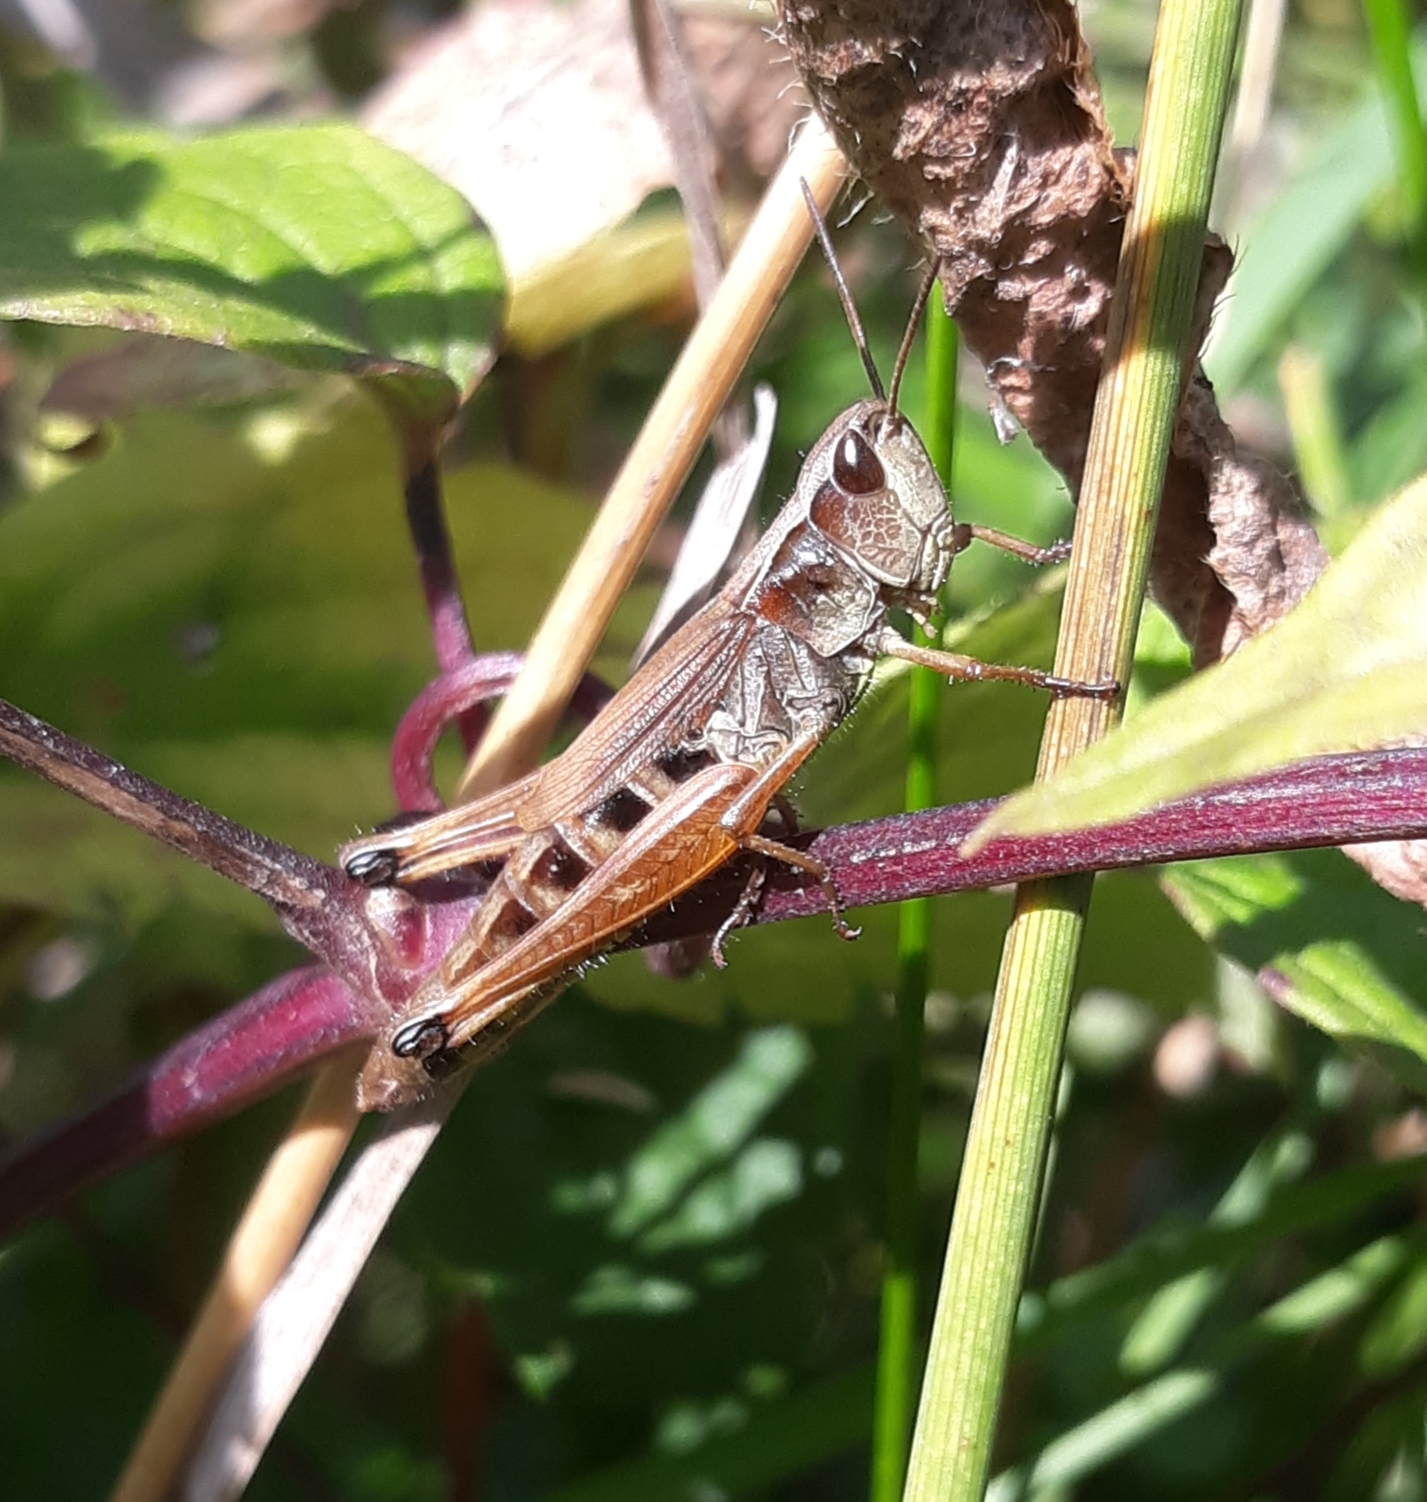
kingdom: Animalia
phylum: Arthropoda
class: Insecta
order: Orthoptera
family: Acrididae
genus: Pseudochorthippus
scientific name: Pseudochorthippus curtipennis
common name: Marsh meadow grasshopper
